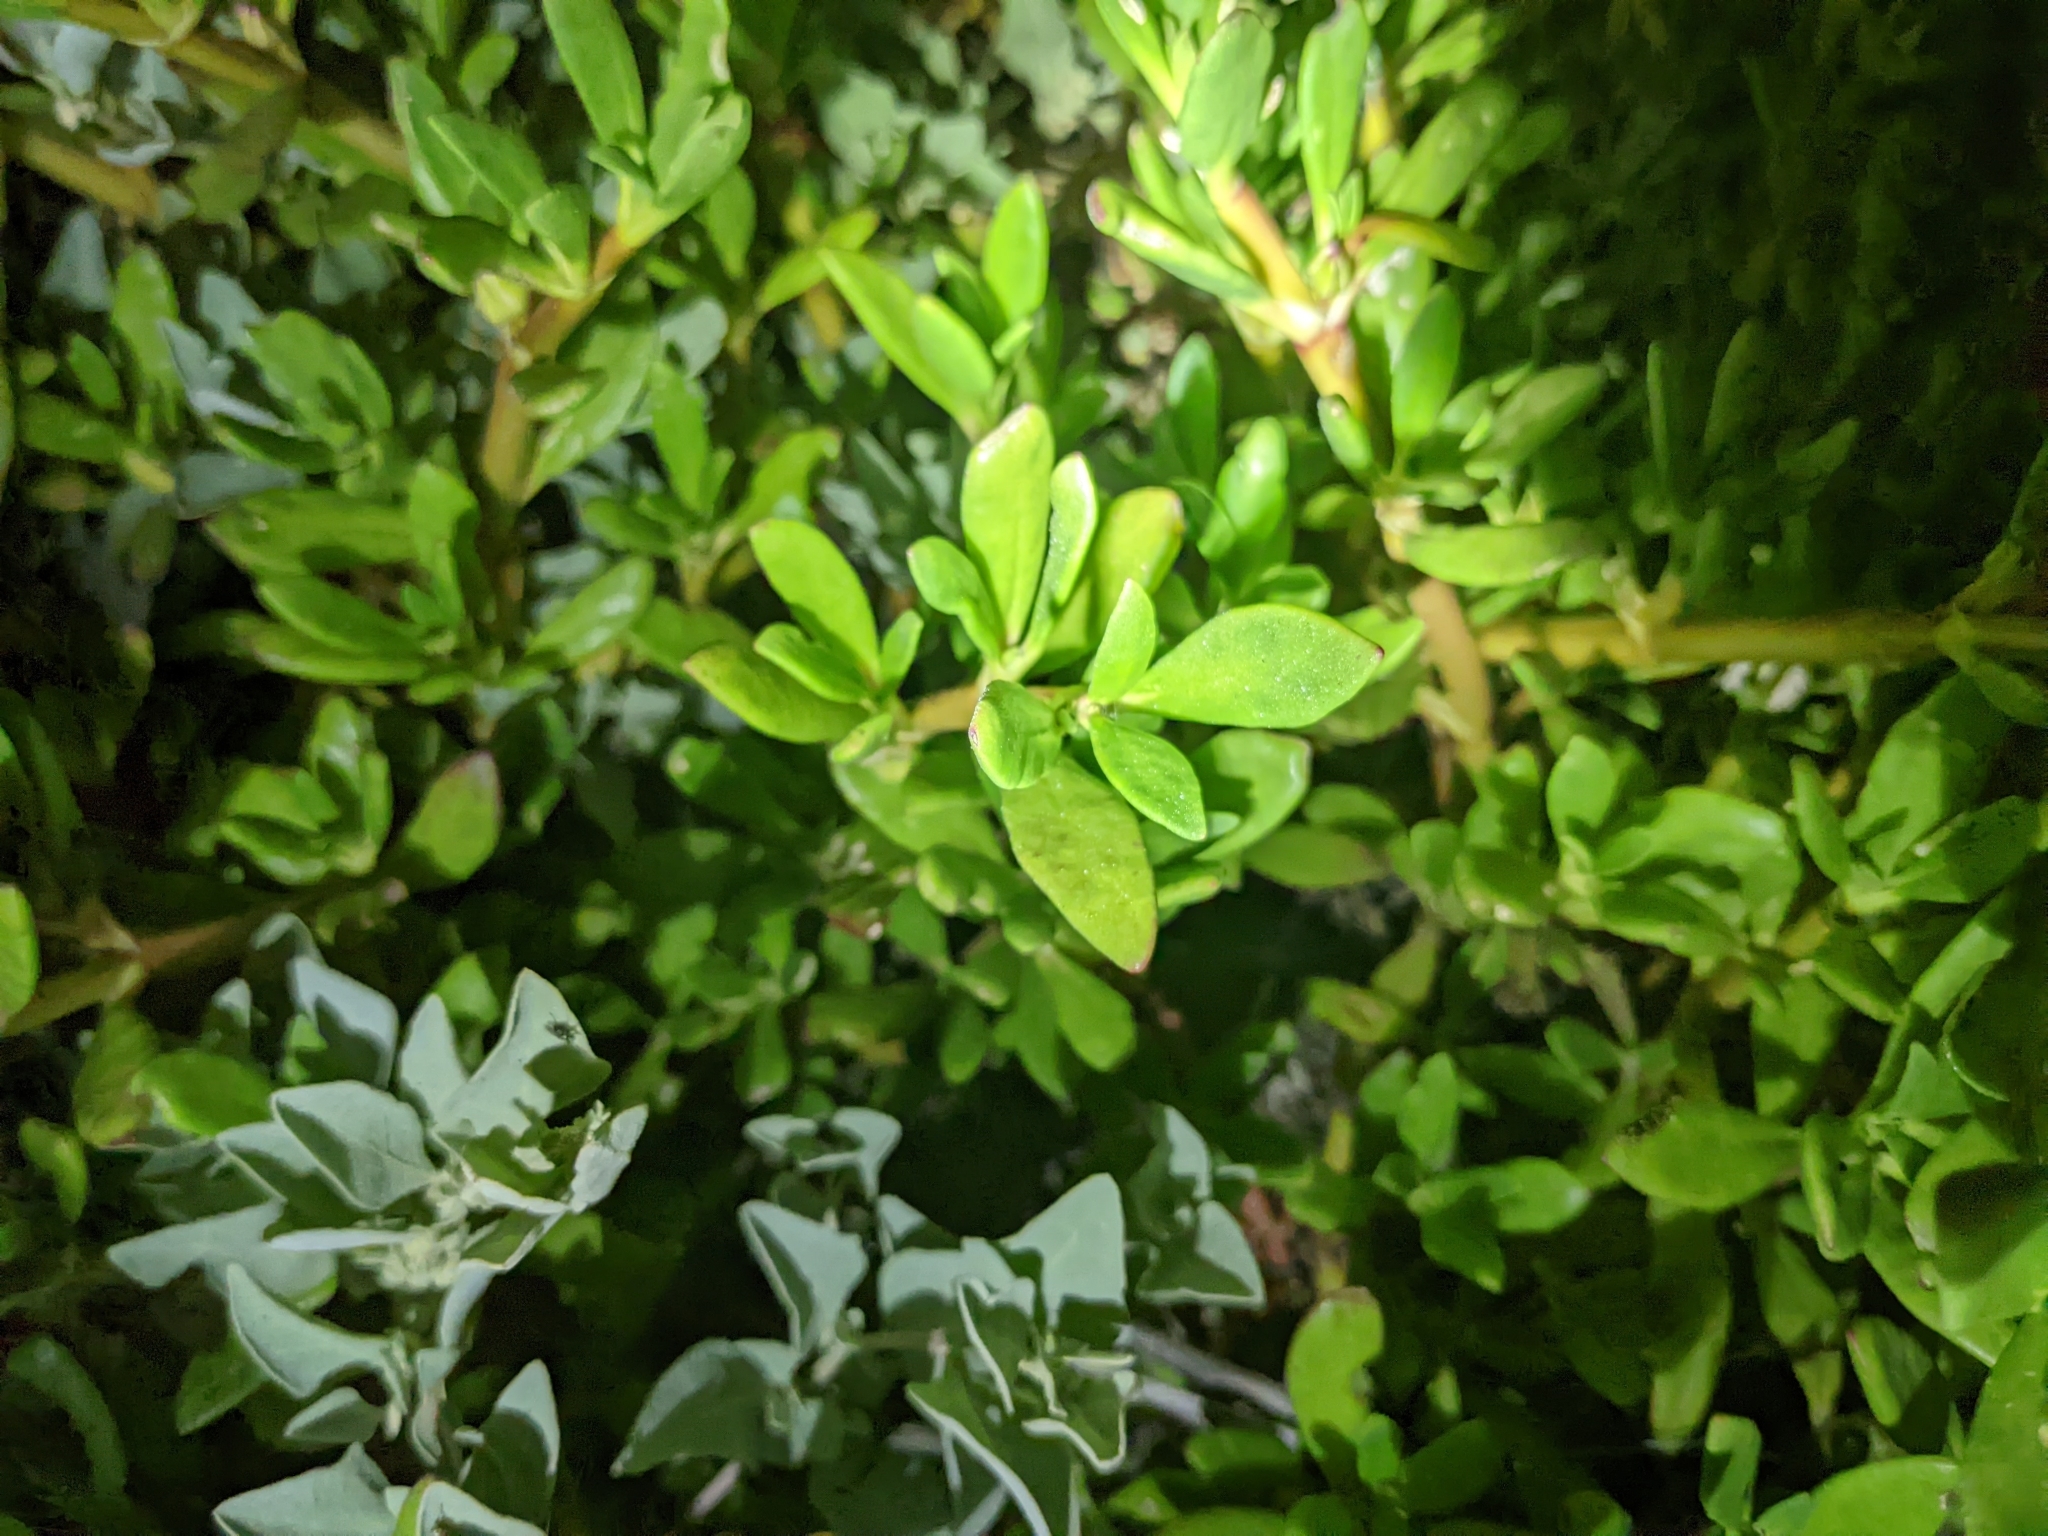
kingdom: Plantae
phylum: Tracheophyta
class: Magnoliopsida
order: Caryophyllales
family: Aizoaceae
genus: Sesuvium
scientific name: Sesuvium portulacastrum
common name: Sea-purslane
